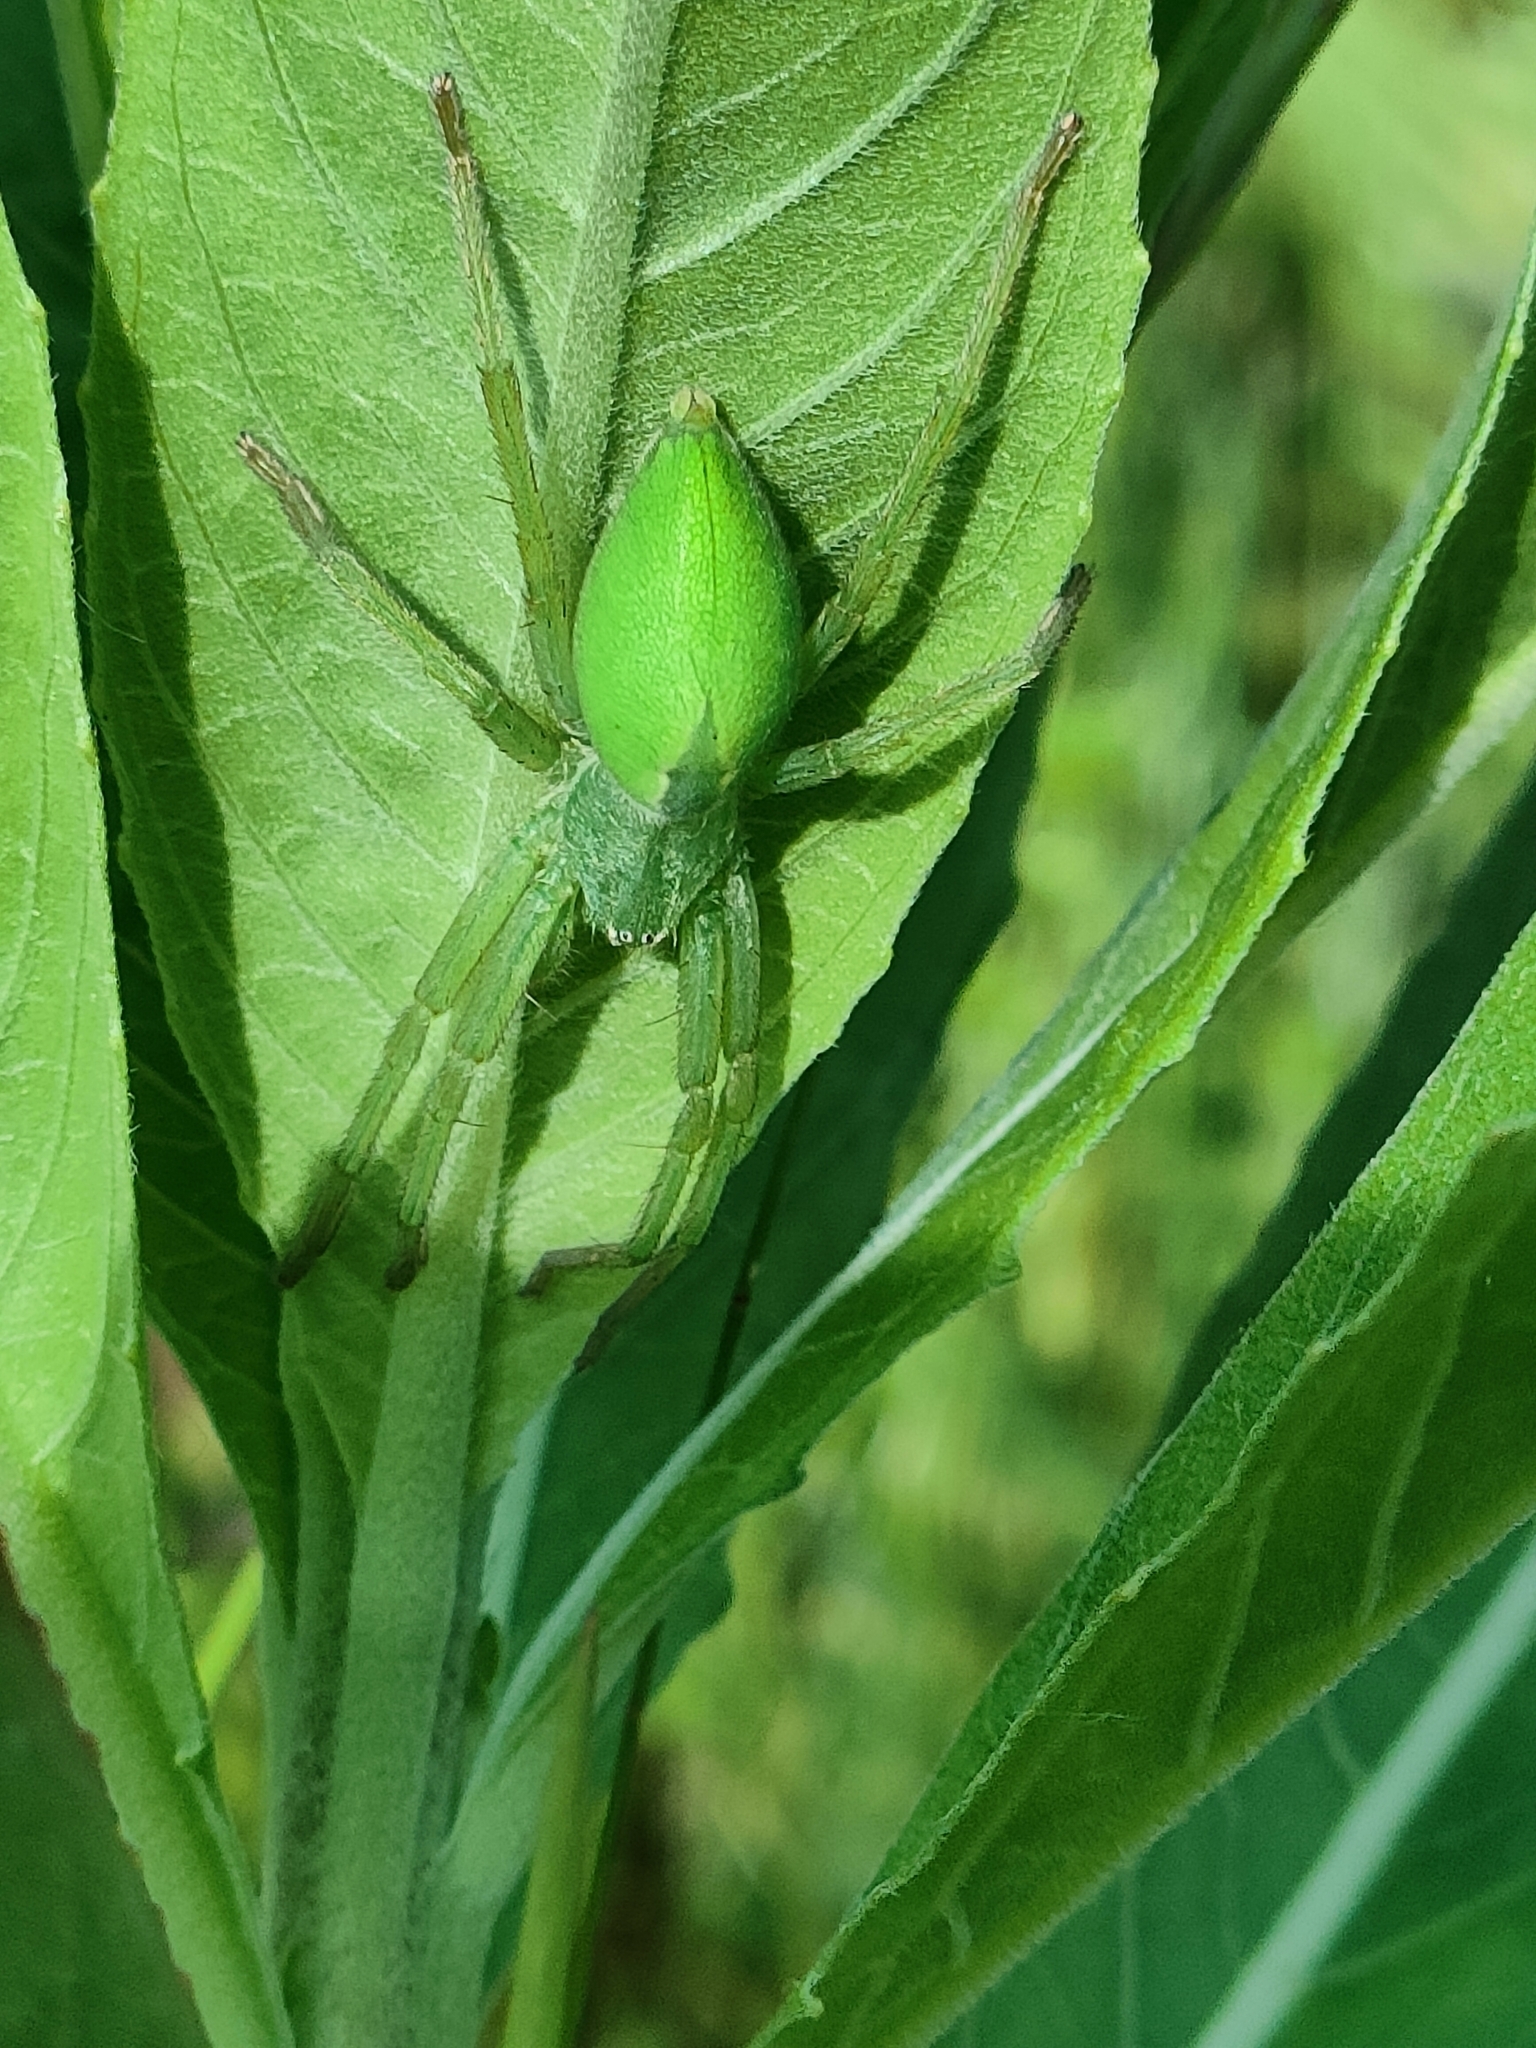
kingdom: Animalia
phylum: Arthropoda
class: Arachnida
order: Araneae
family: Sparassidae
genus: Micrommata
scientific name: Micrommata virescens
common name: Green spider
